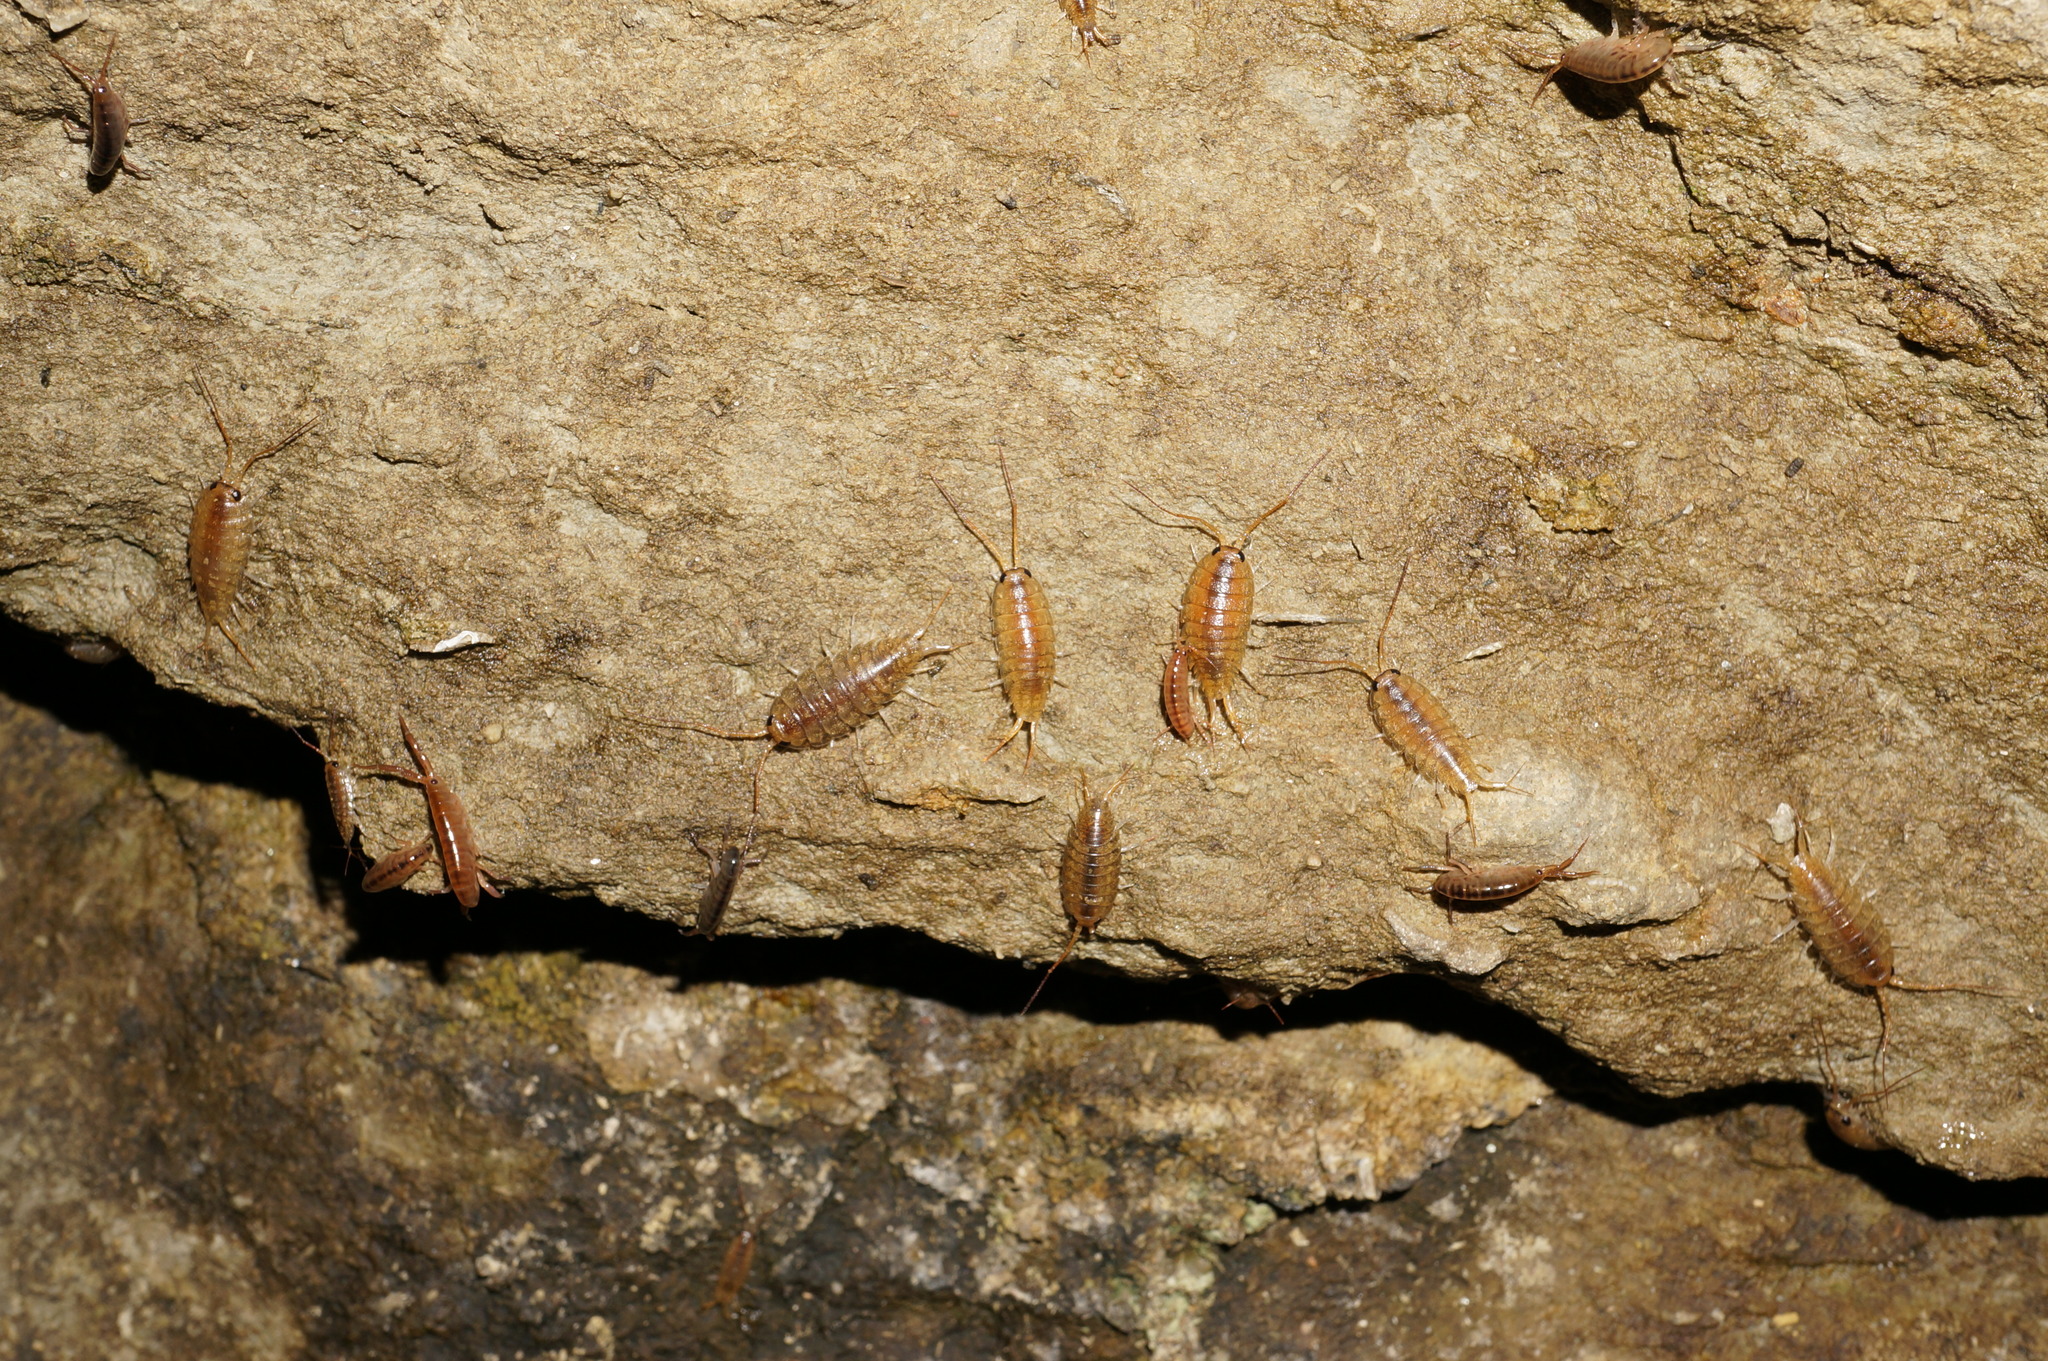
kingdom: Animalia
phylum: Arthropoda
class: Malacostraca
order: Isopoda
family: Ligiidae
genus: Ligia
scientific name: Ligia novizealandiae
